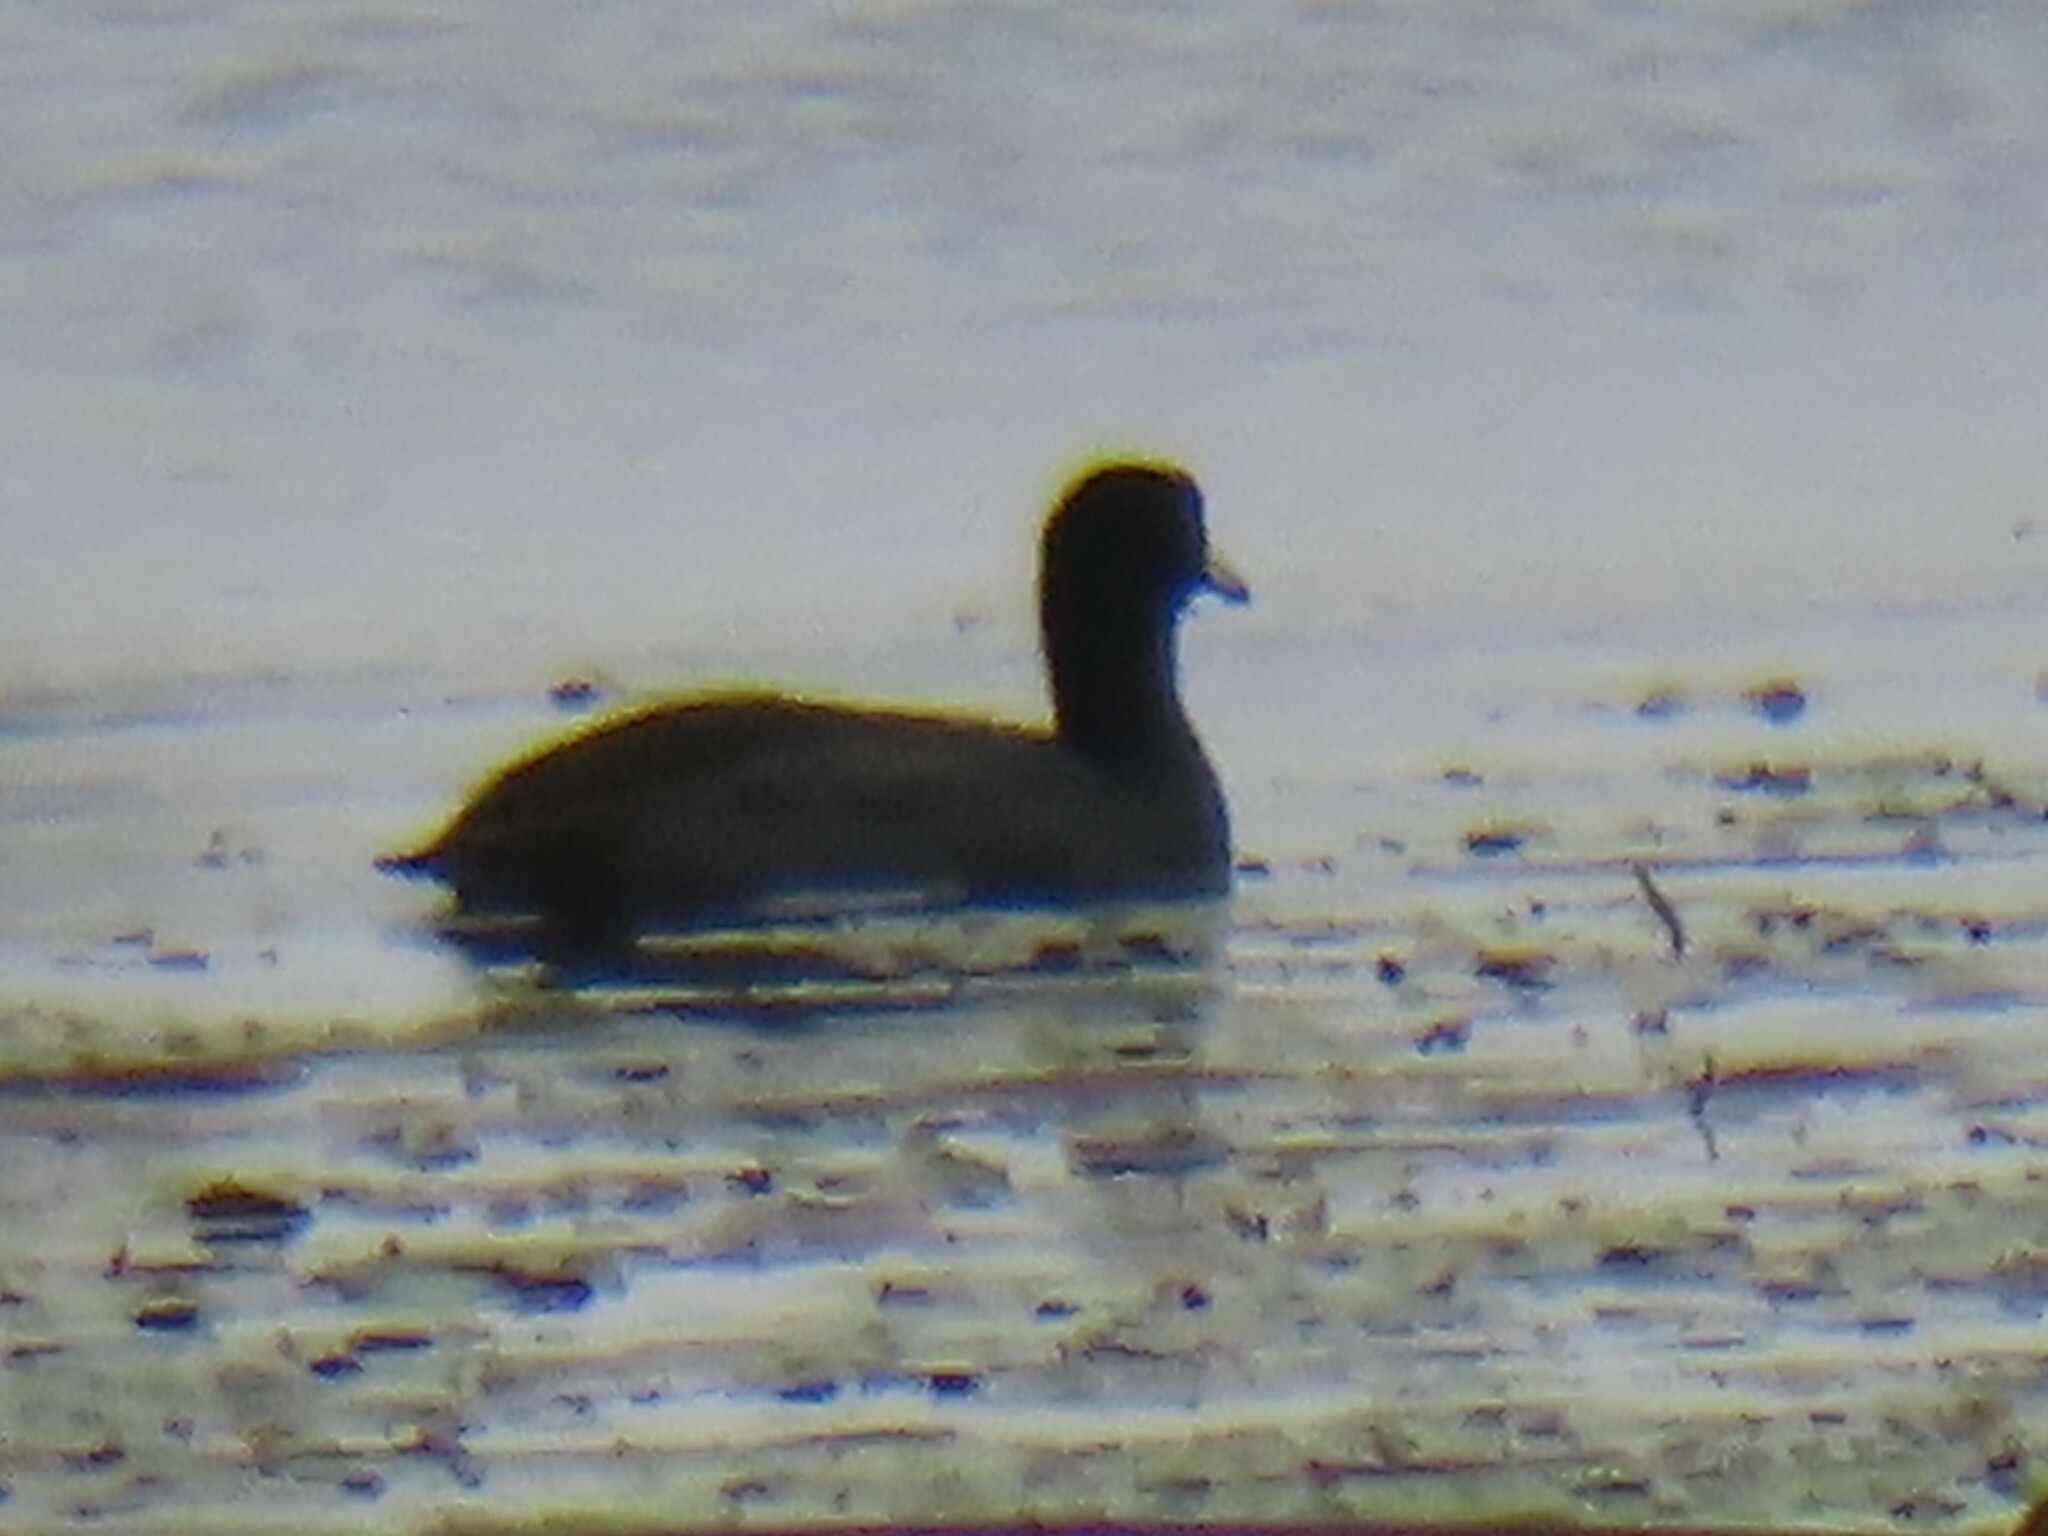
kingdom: Animalia
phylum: Chordata
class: Aves
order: Gruiformes
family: Rallidae
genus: Fulica
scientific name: Fulica americana
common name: American coot
